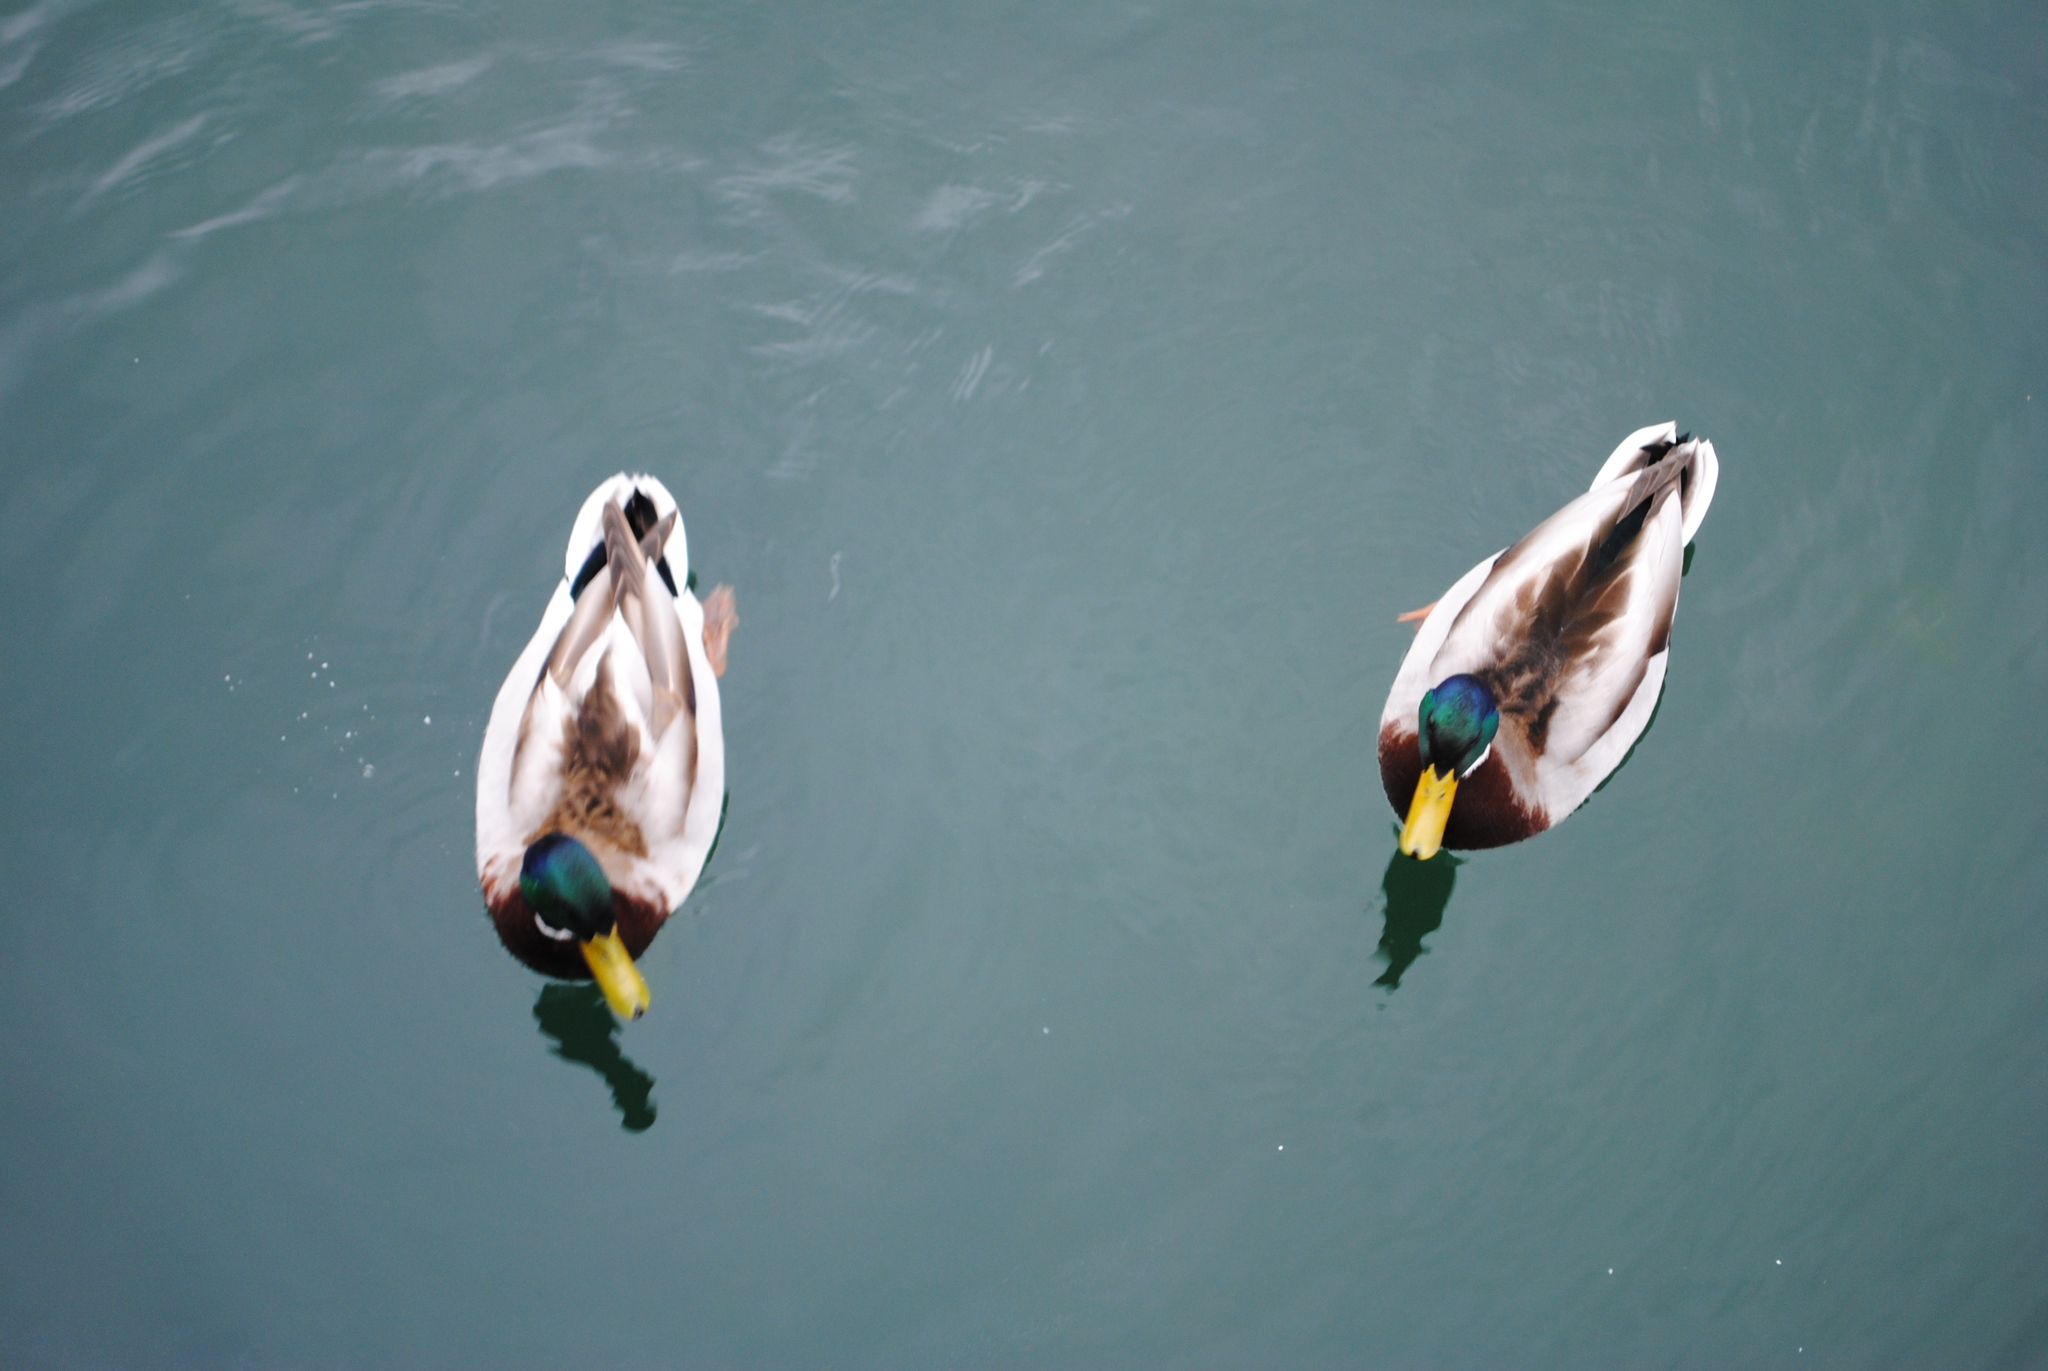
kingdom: Animalia
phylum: Chordata
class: Aves
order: Anseriformes
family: Anatidae
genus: Anas
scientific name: Anas platyrhynchos
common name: Mallard
